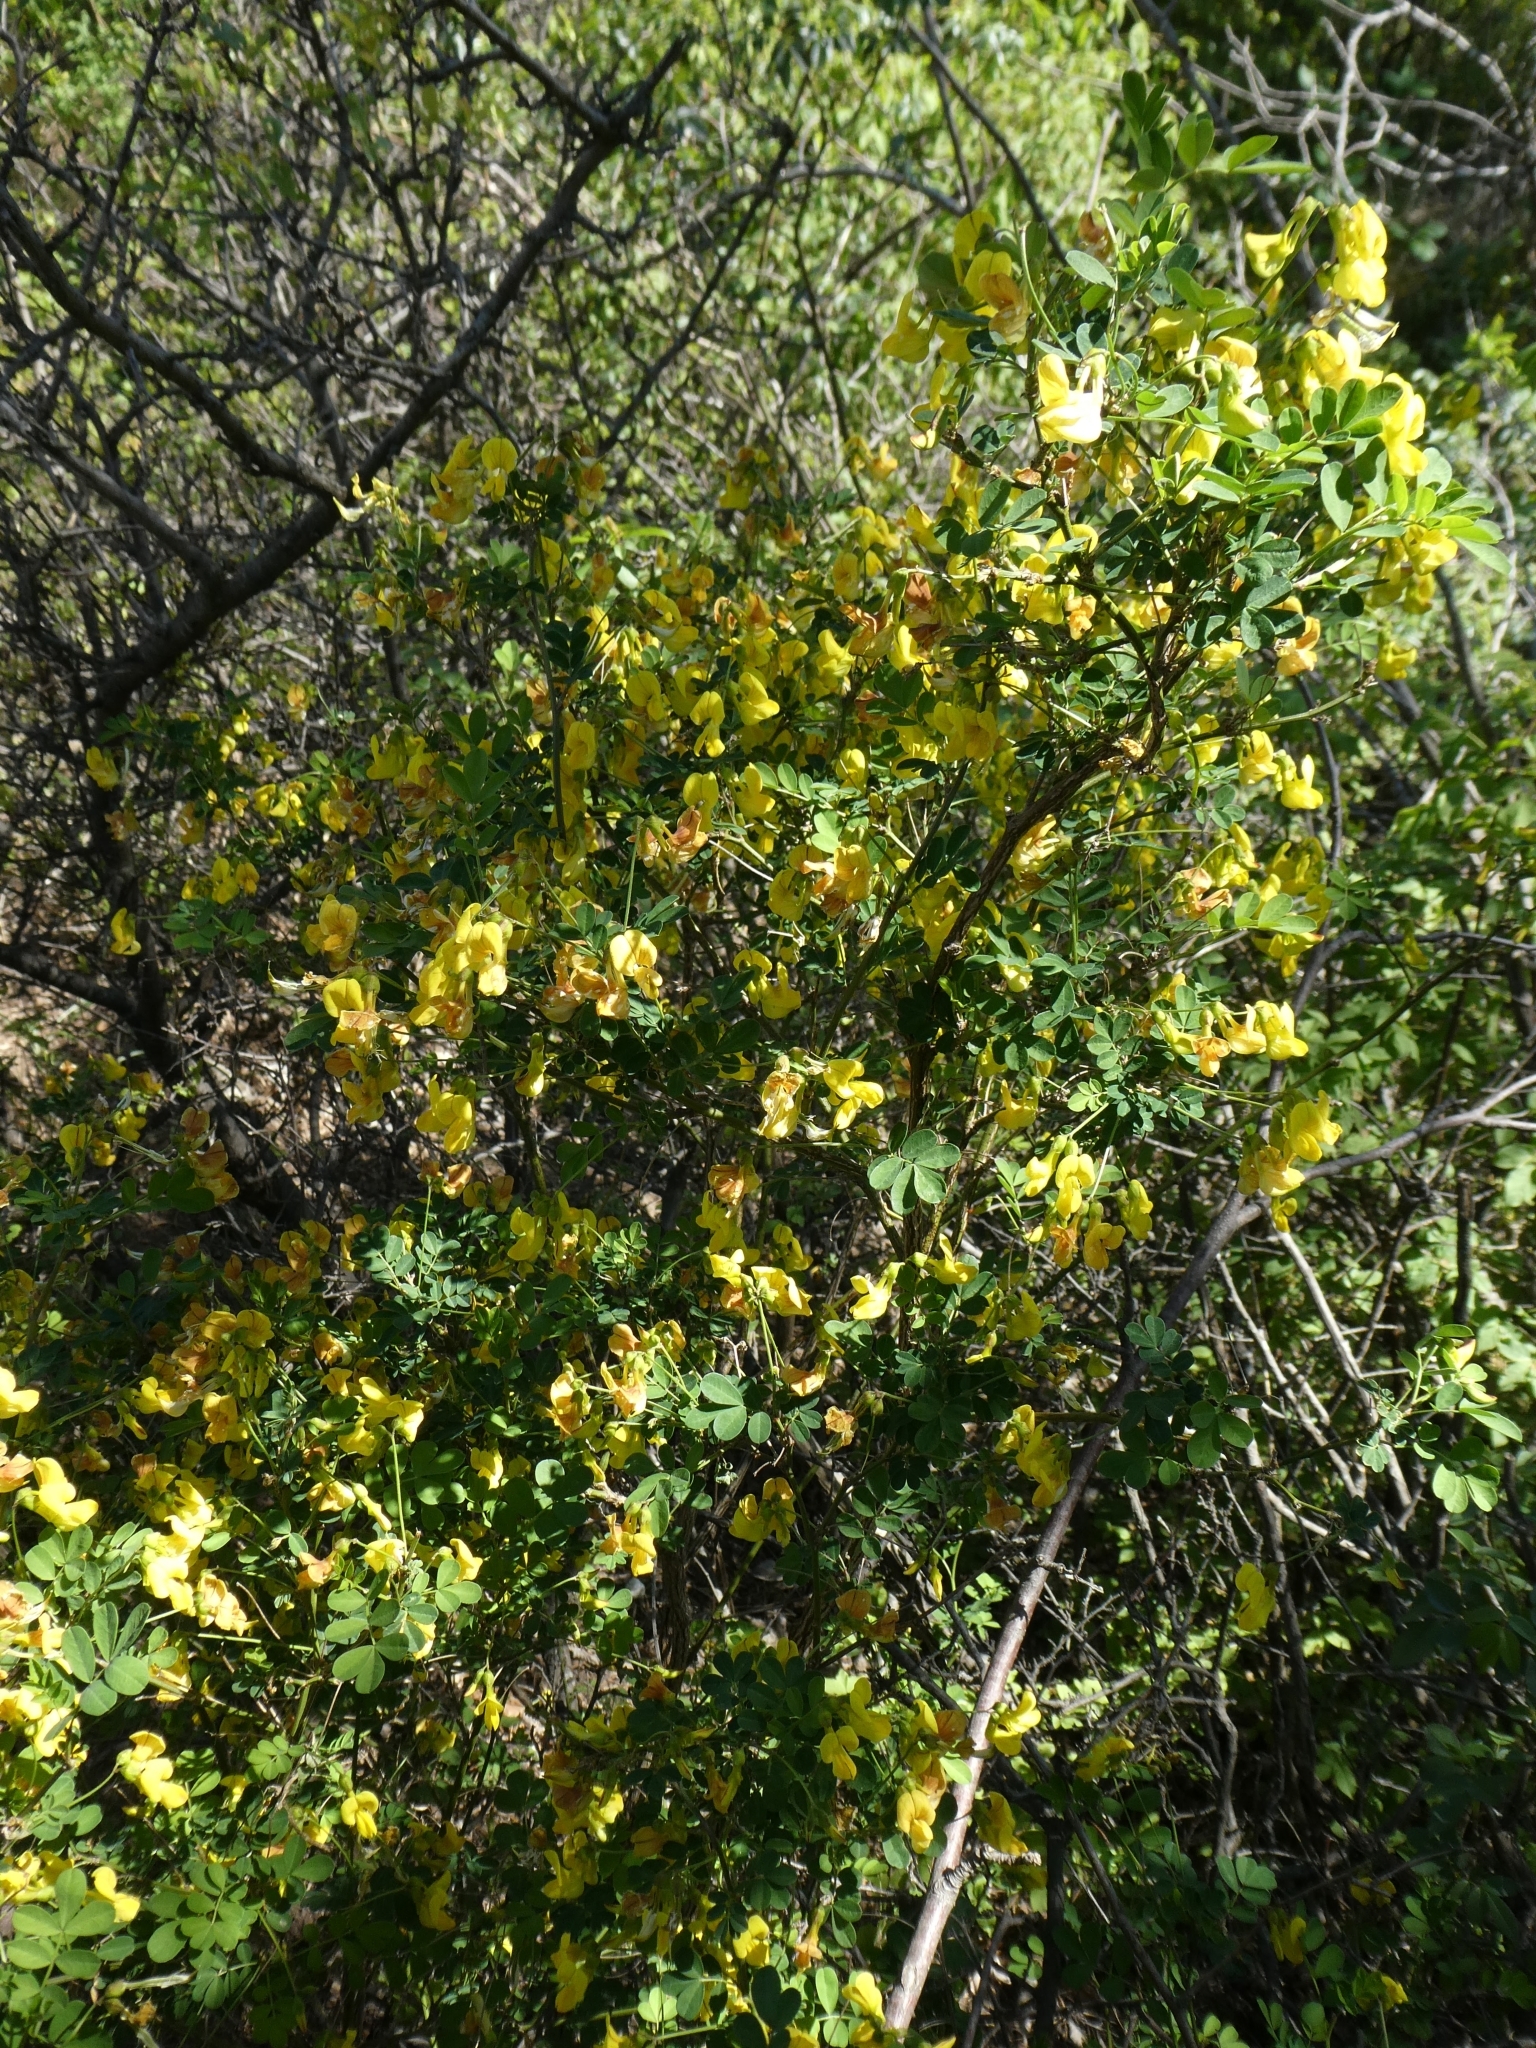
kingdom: Plantae
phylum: Tracheophyta
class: Magnoliopsida
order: Fabales
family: Fabaceae
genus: Hippocrepis
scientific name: Hippocrepis emerus
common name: Scorpion senna
